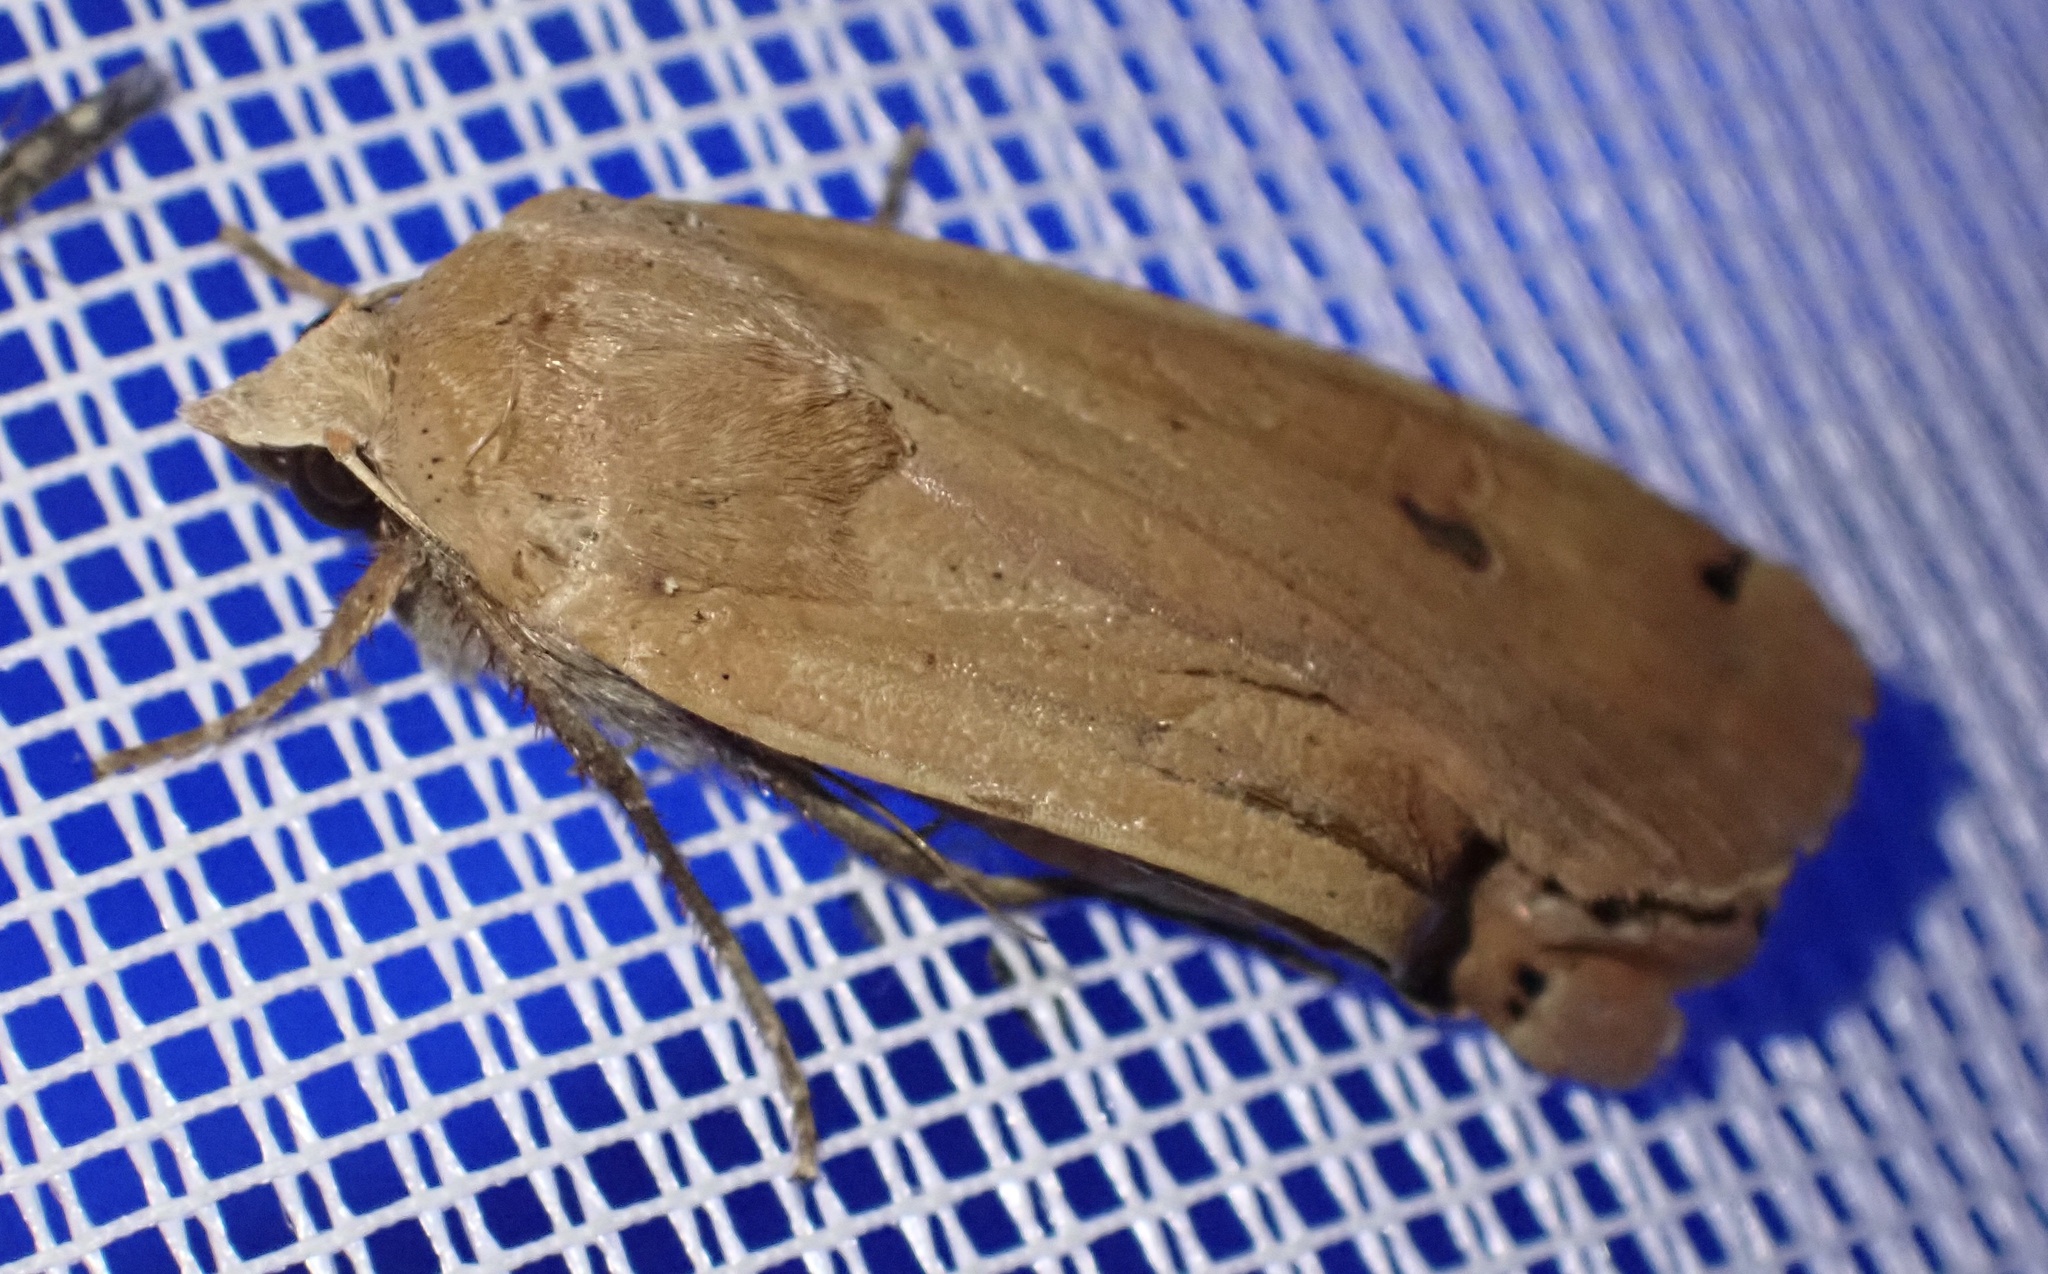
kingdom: Animalia
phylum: Arthropoda
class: Insecta
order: Lepidoptera
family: Noctuidae
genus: Noctua
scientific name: Noctua pronuba
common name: Large yellow underwing
